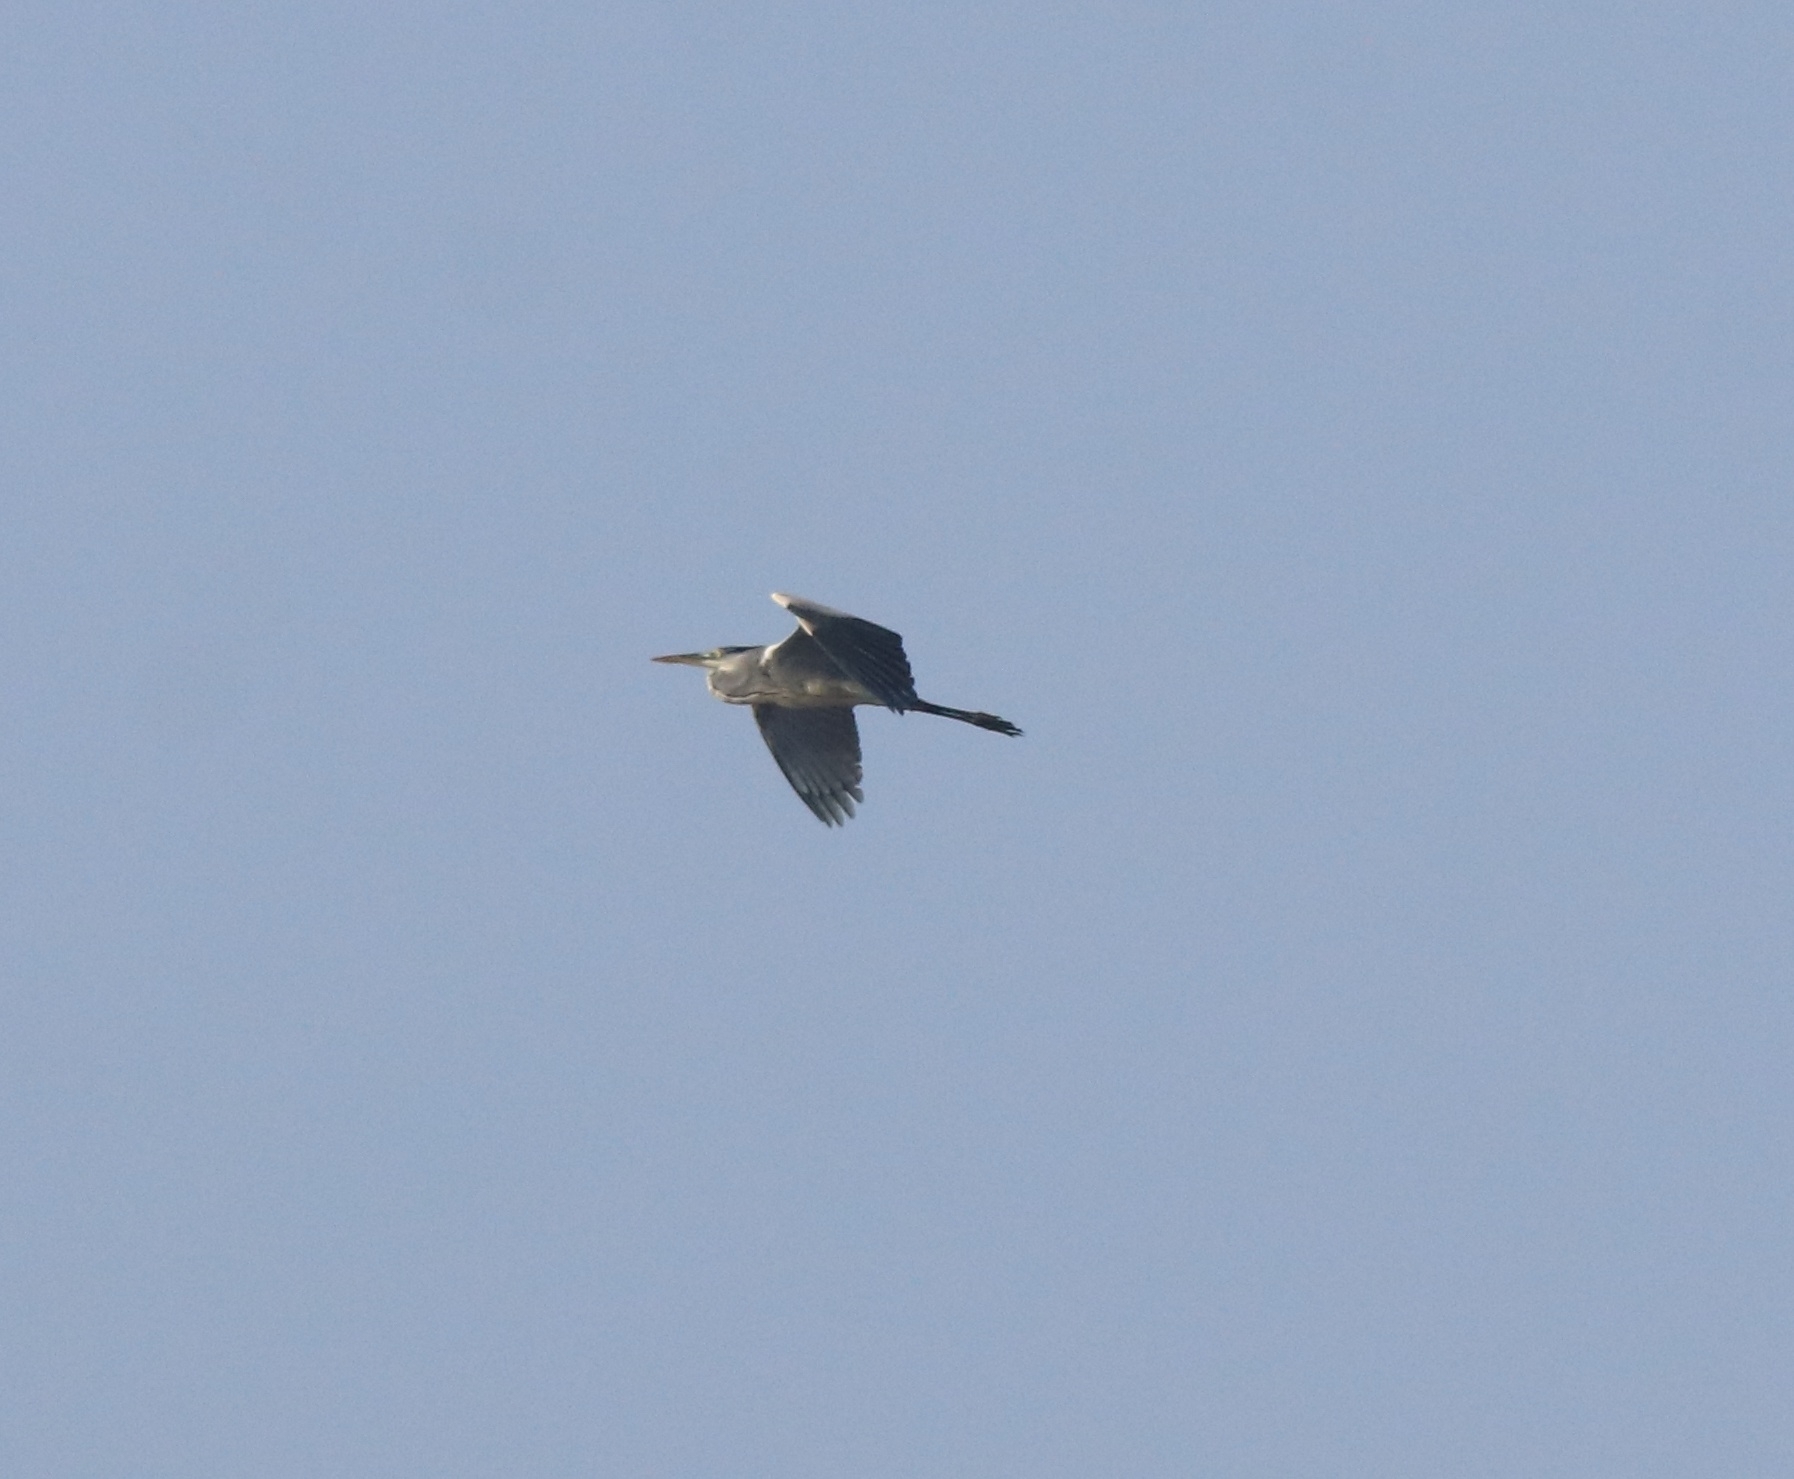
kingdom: Animalia
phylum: Chordata
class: Aves
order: Pelecaniformes
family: Ardeidae
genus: Ardea
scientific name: Ardea cinerea
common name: Grey heron
